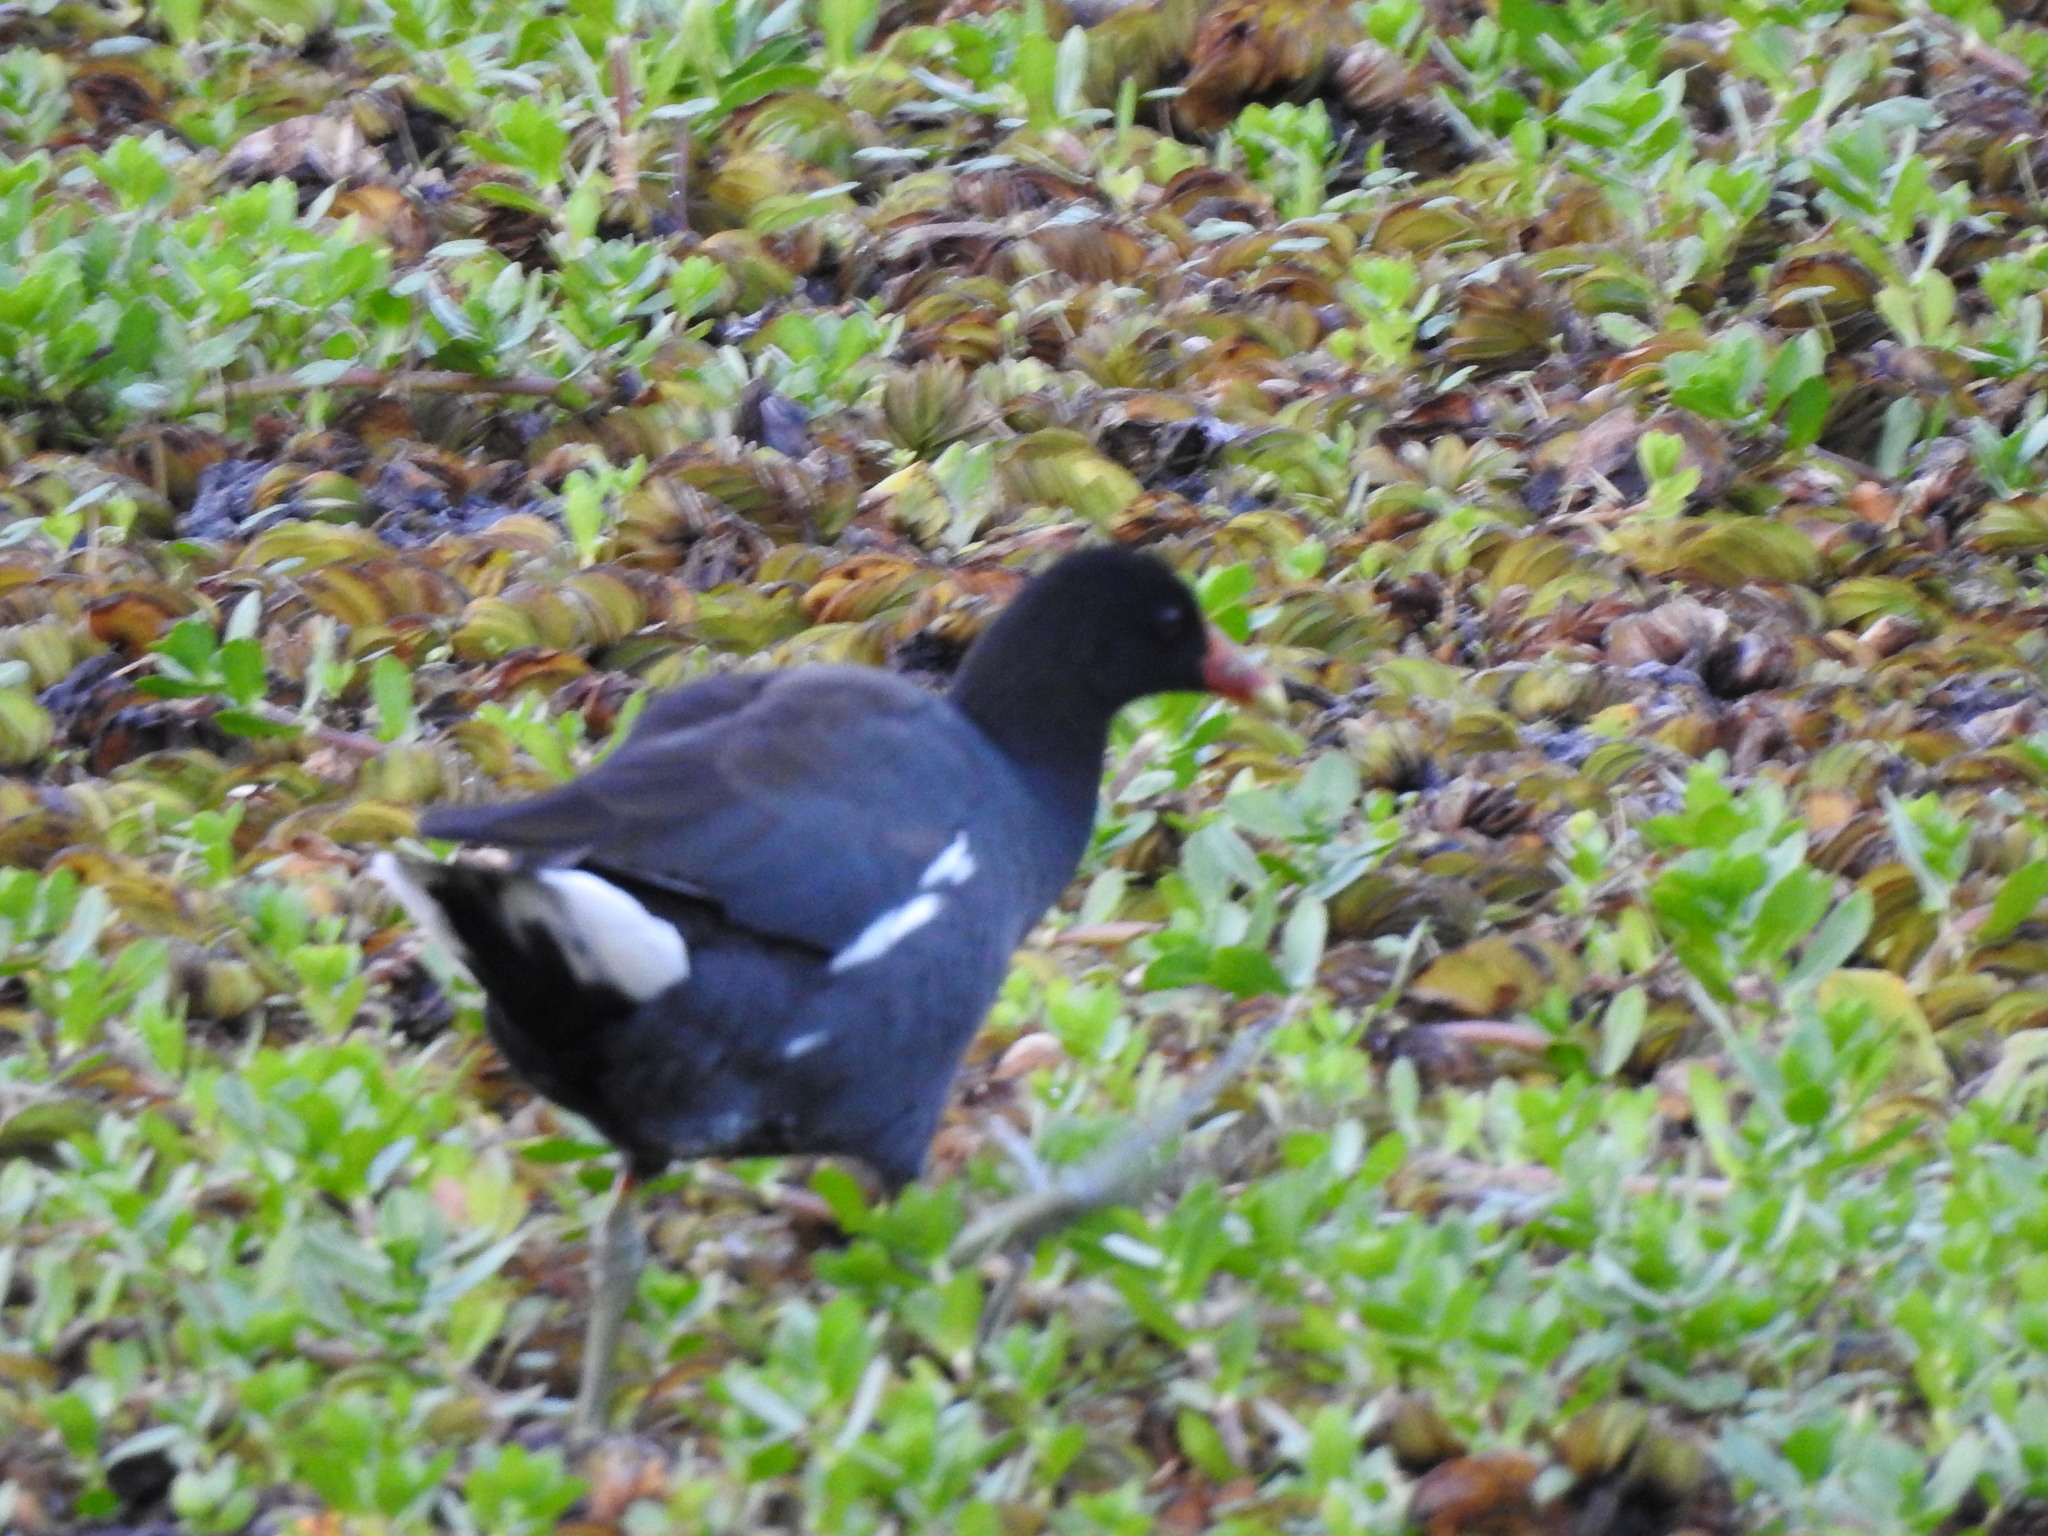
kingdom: Animalia
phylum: Chordata
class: Aves
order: Gruiformes
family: Rallidae
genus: Gallinula
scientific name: Gallinula chloropus
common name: Common moorhen
